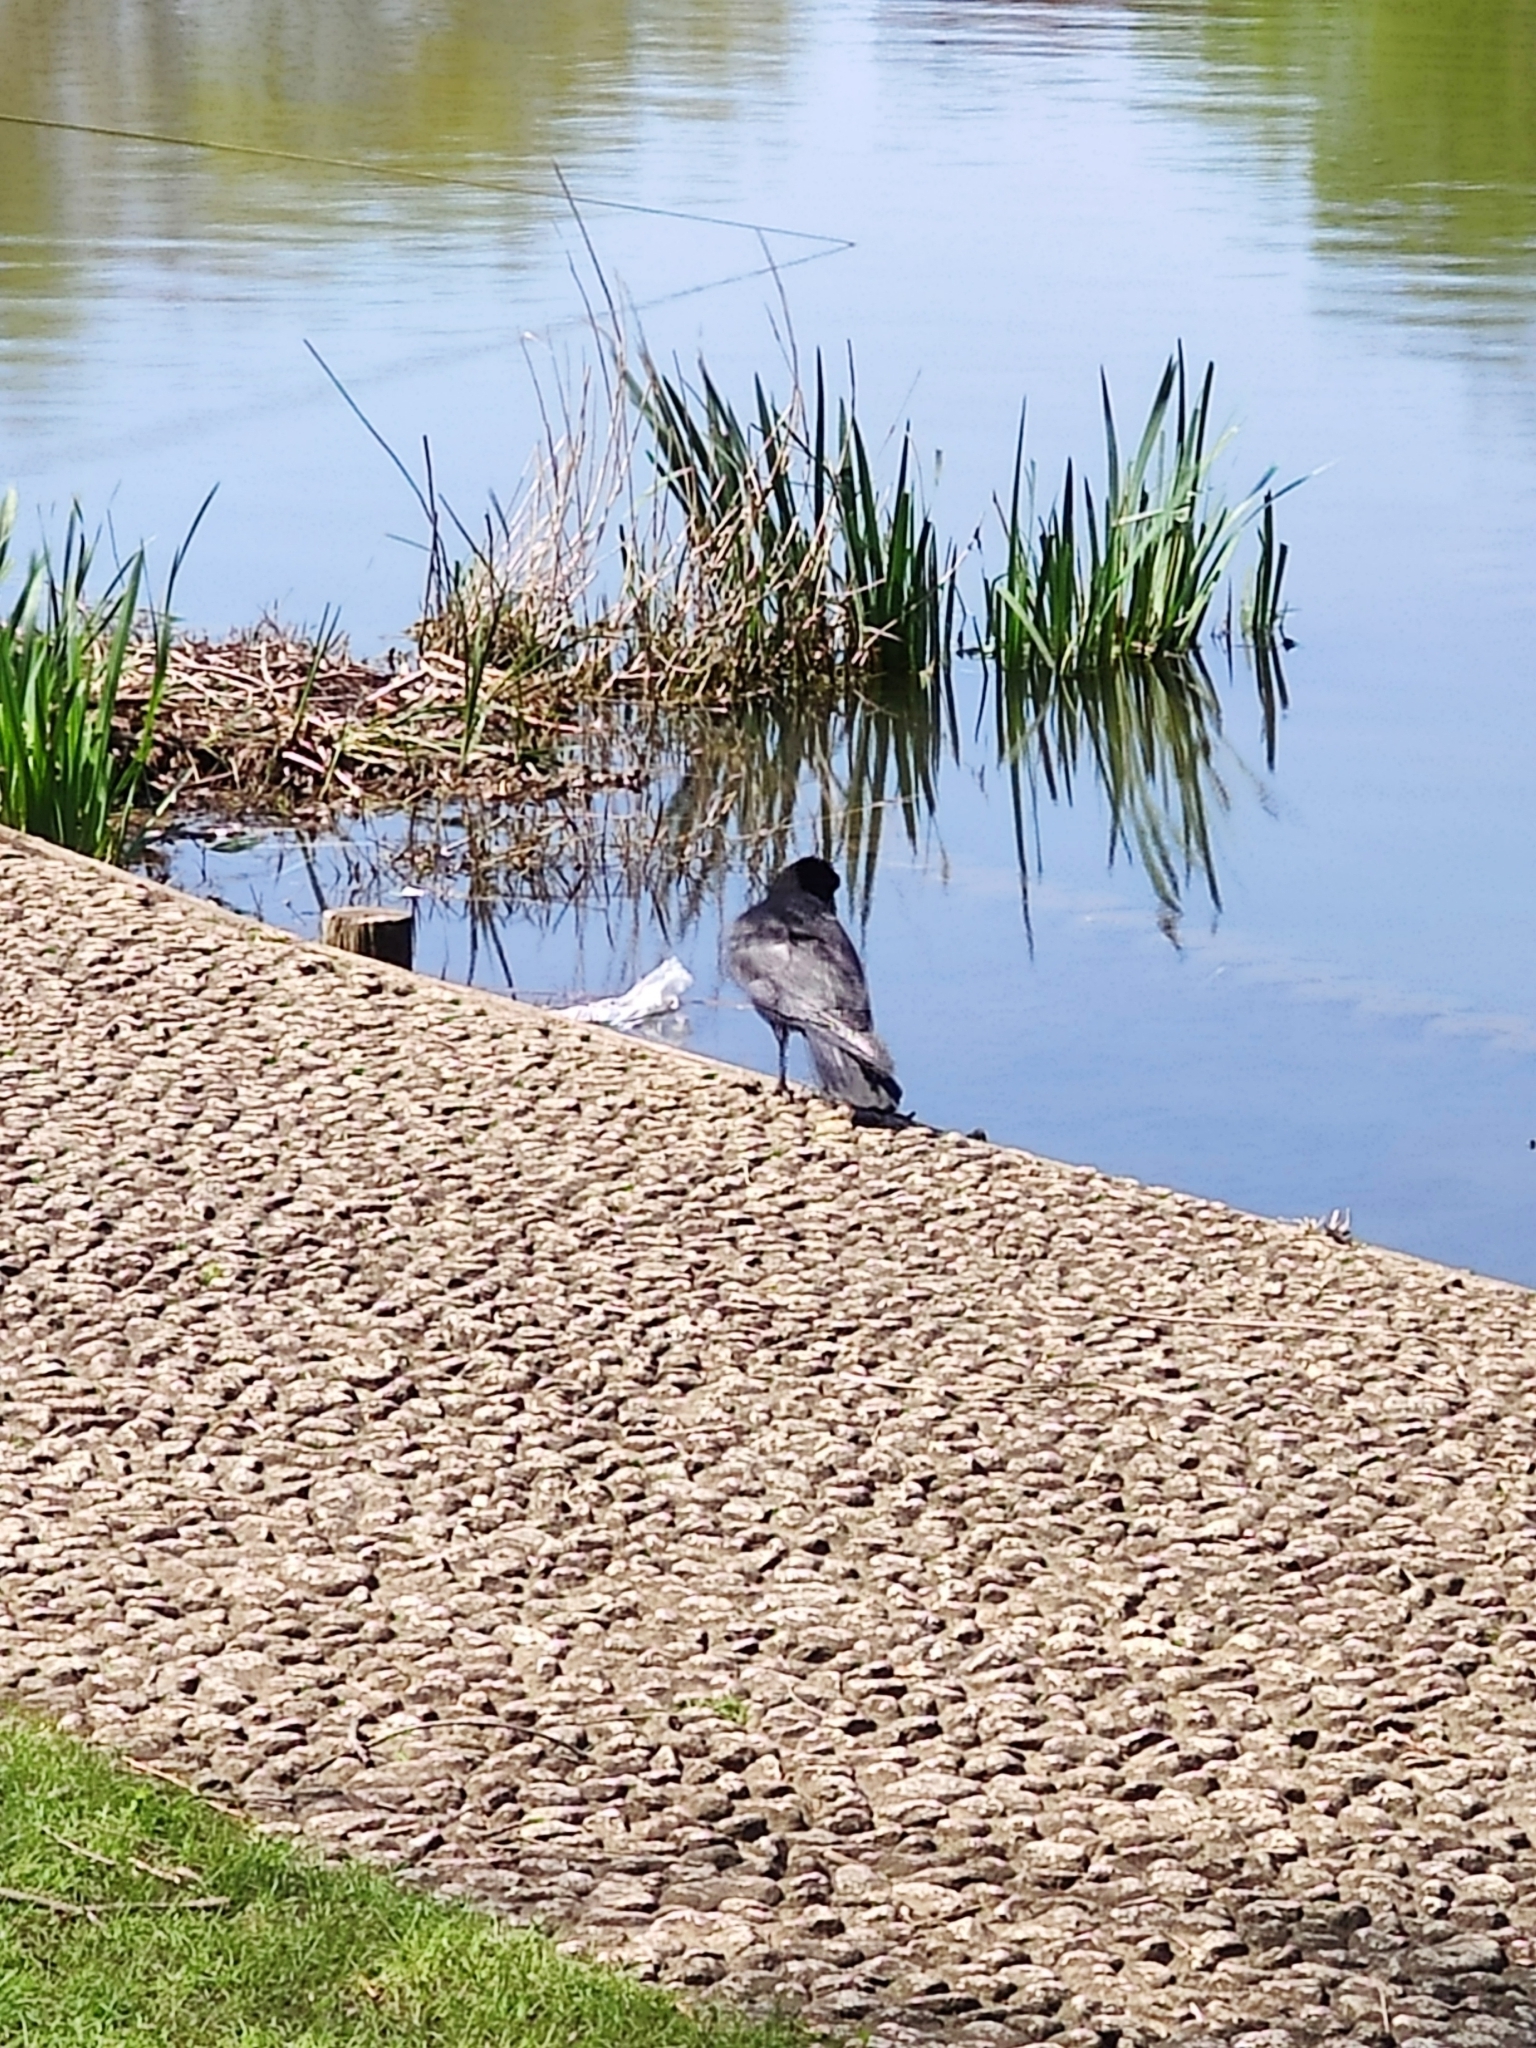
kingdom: Animalia
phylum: Chordata
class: Aves
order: Passeriformes
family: Corvidae
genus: Corvus
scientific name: Corvus macrorhynchos
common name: Large-billed crow
